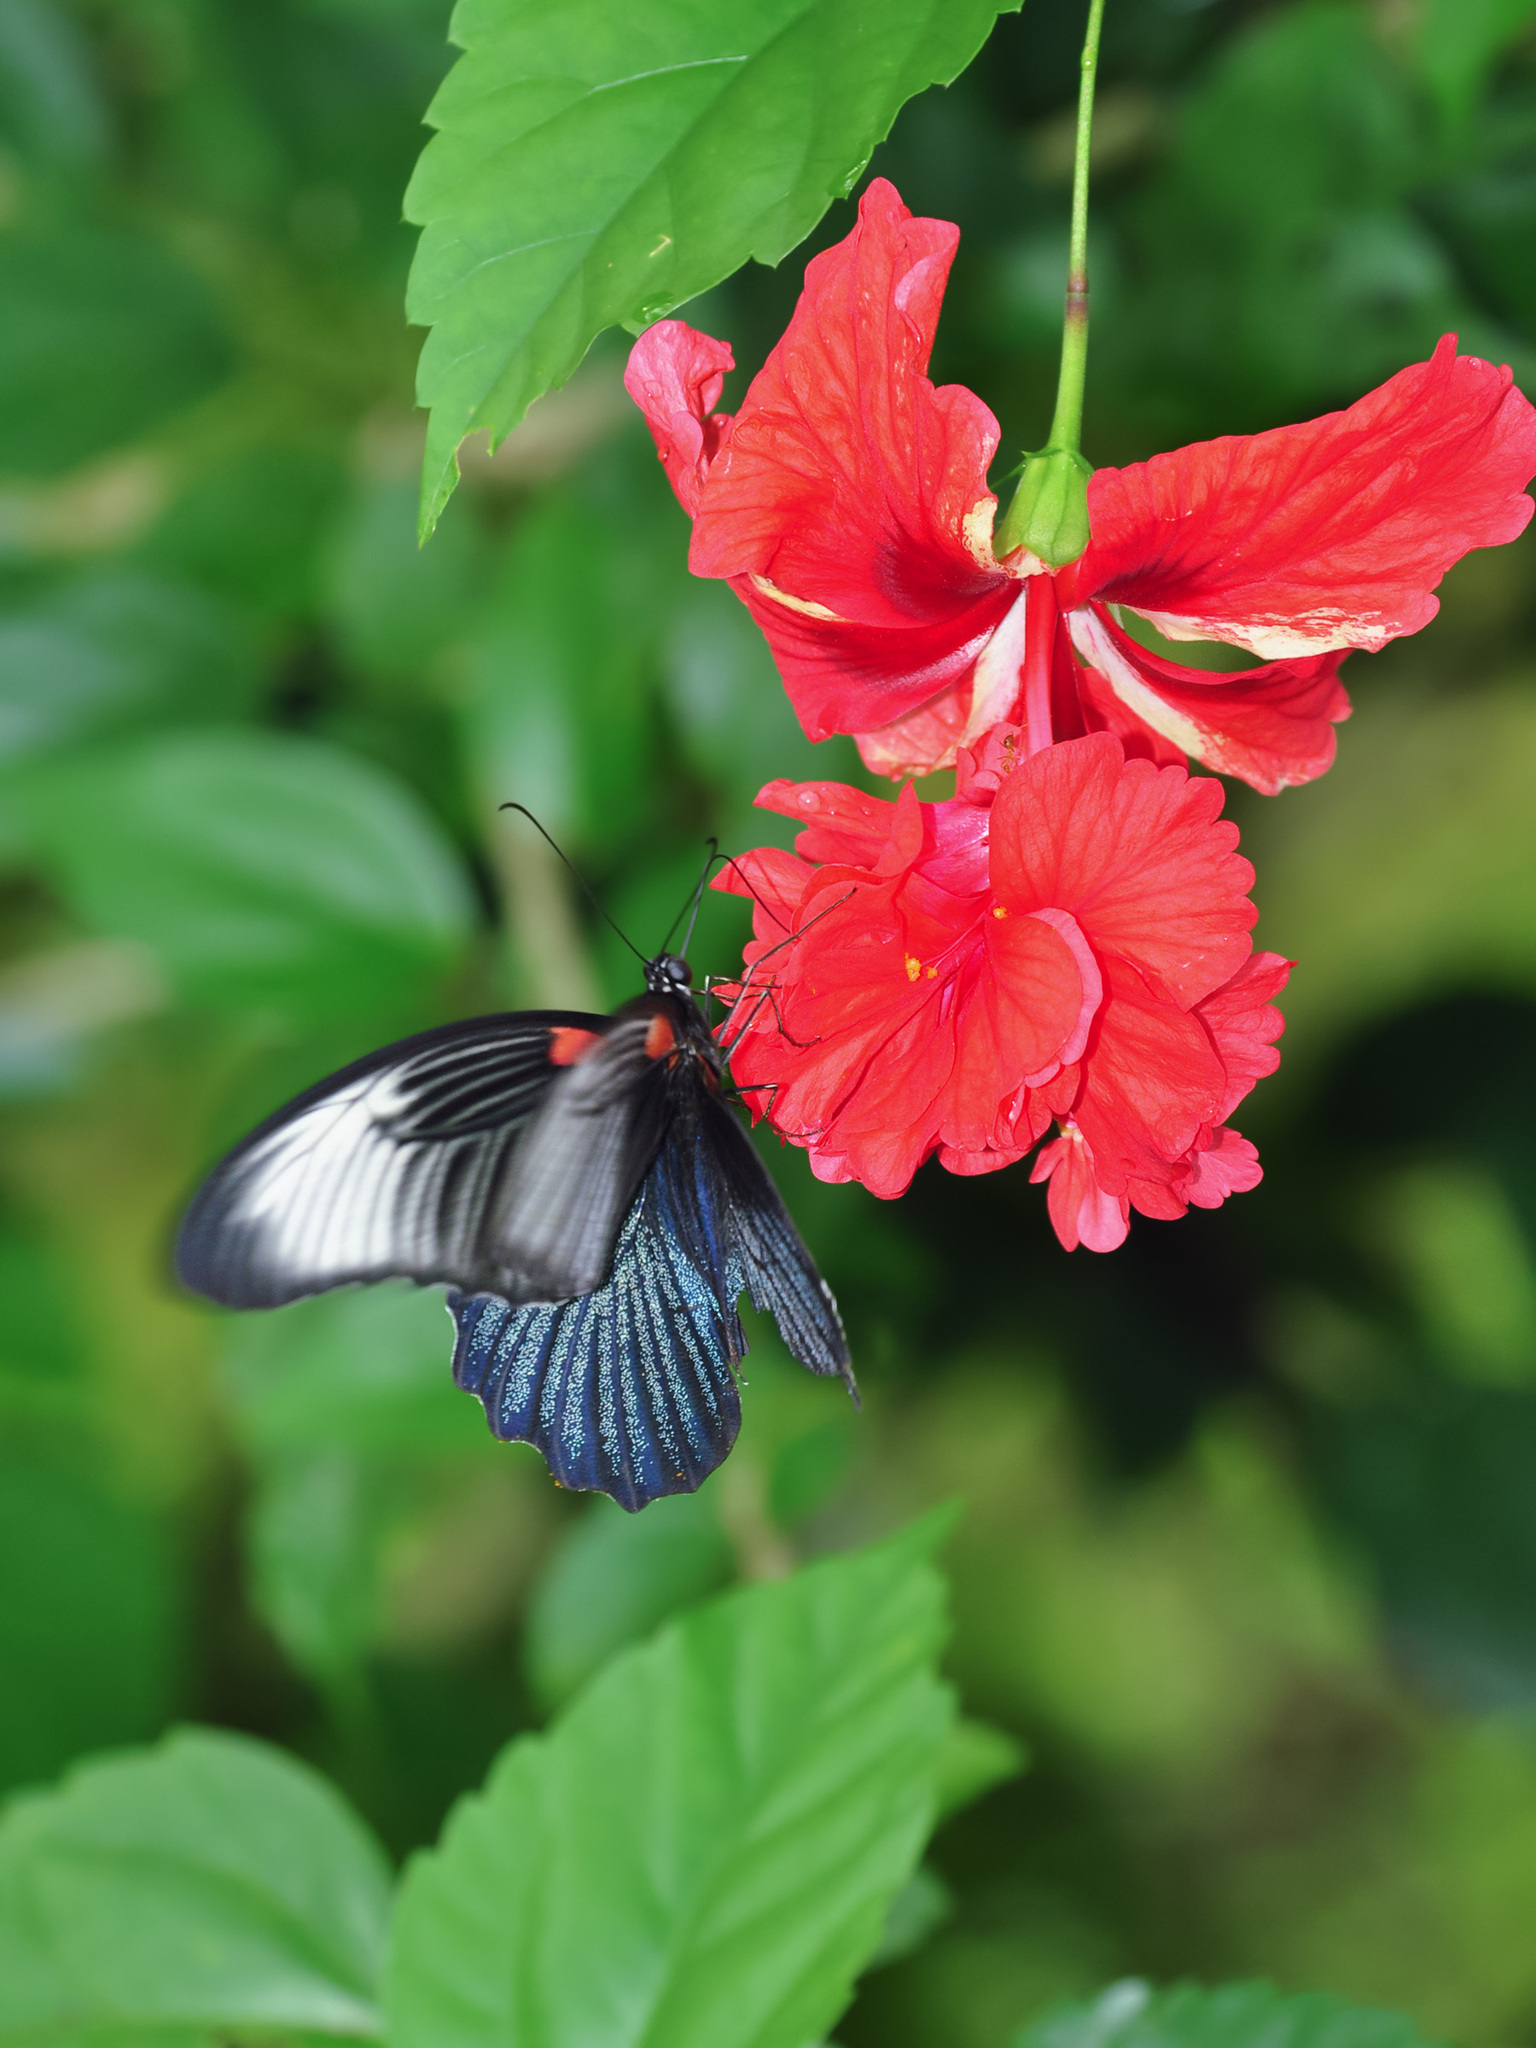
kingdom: Animalia
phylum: Arthropoda
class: Insecta
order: Lepidoptera
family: Papilionidae
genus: Papilio
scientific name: Papilio memnon
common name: Great mormon
